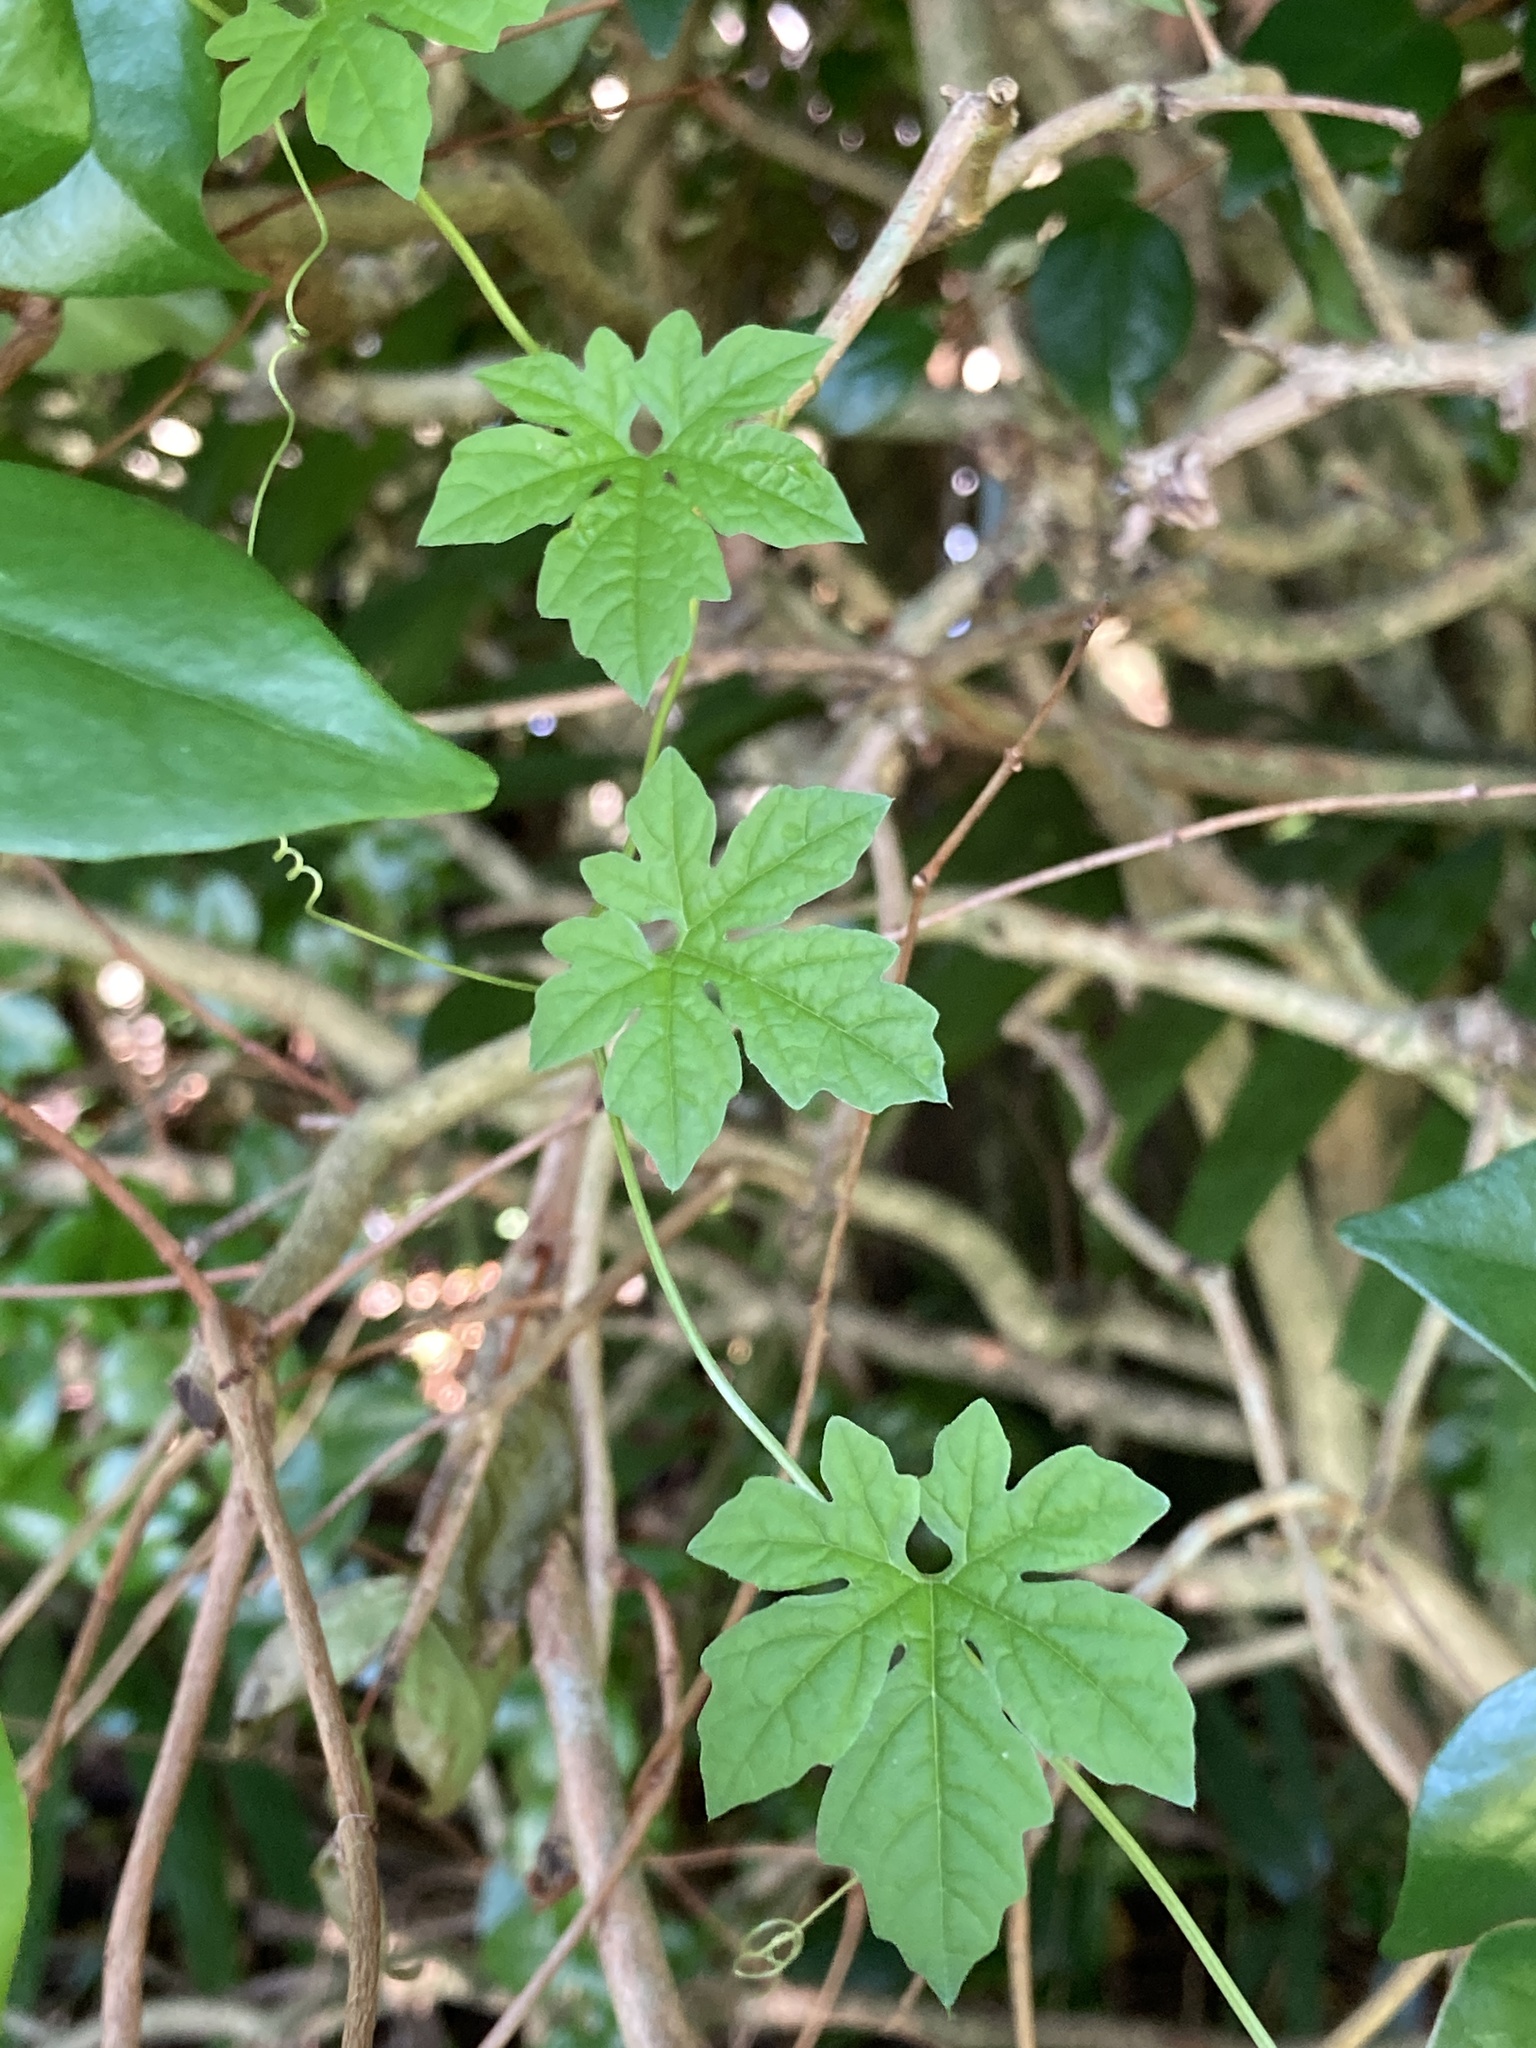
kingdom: Plantae
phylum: Tracheophyta
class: Magnoliopsida
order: Cucurbitales
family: Cucurbitaceae
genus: Momordica
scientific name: Momordica charantia
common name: Balsampear
